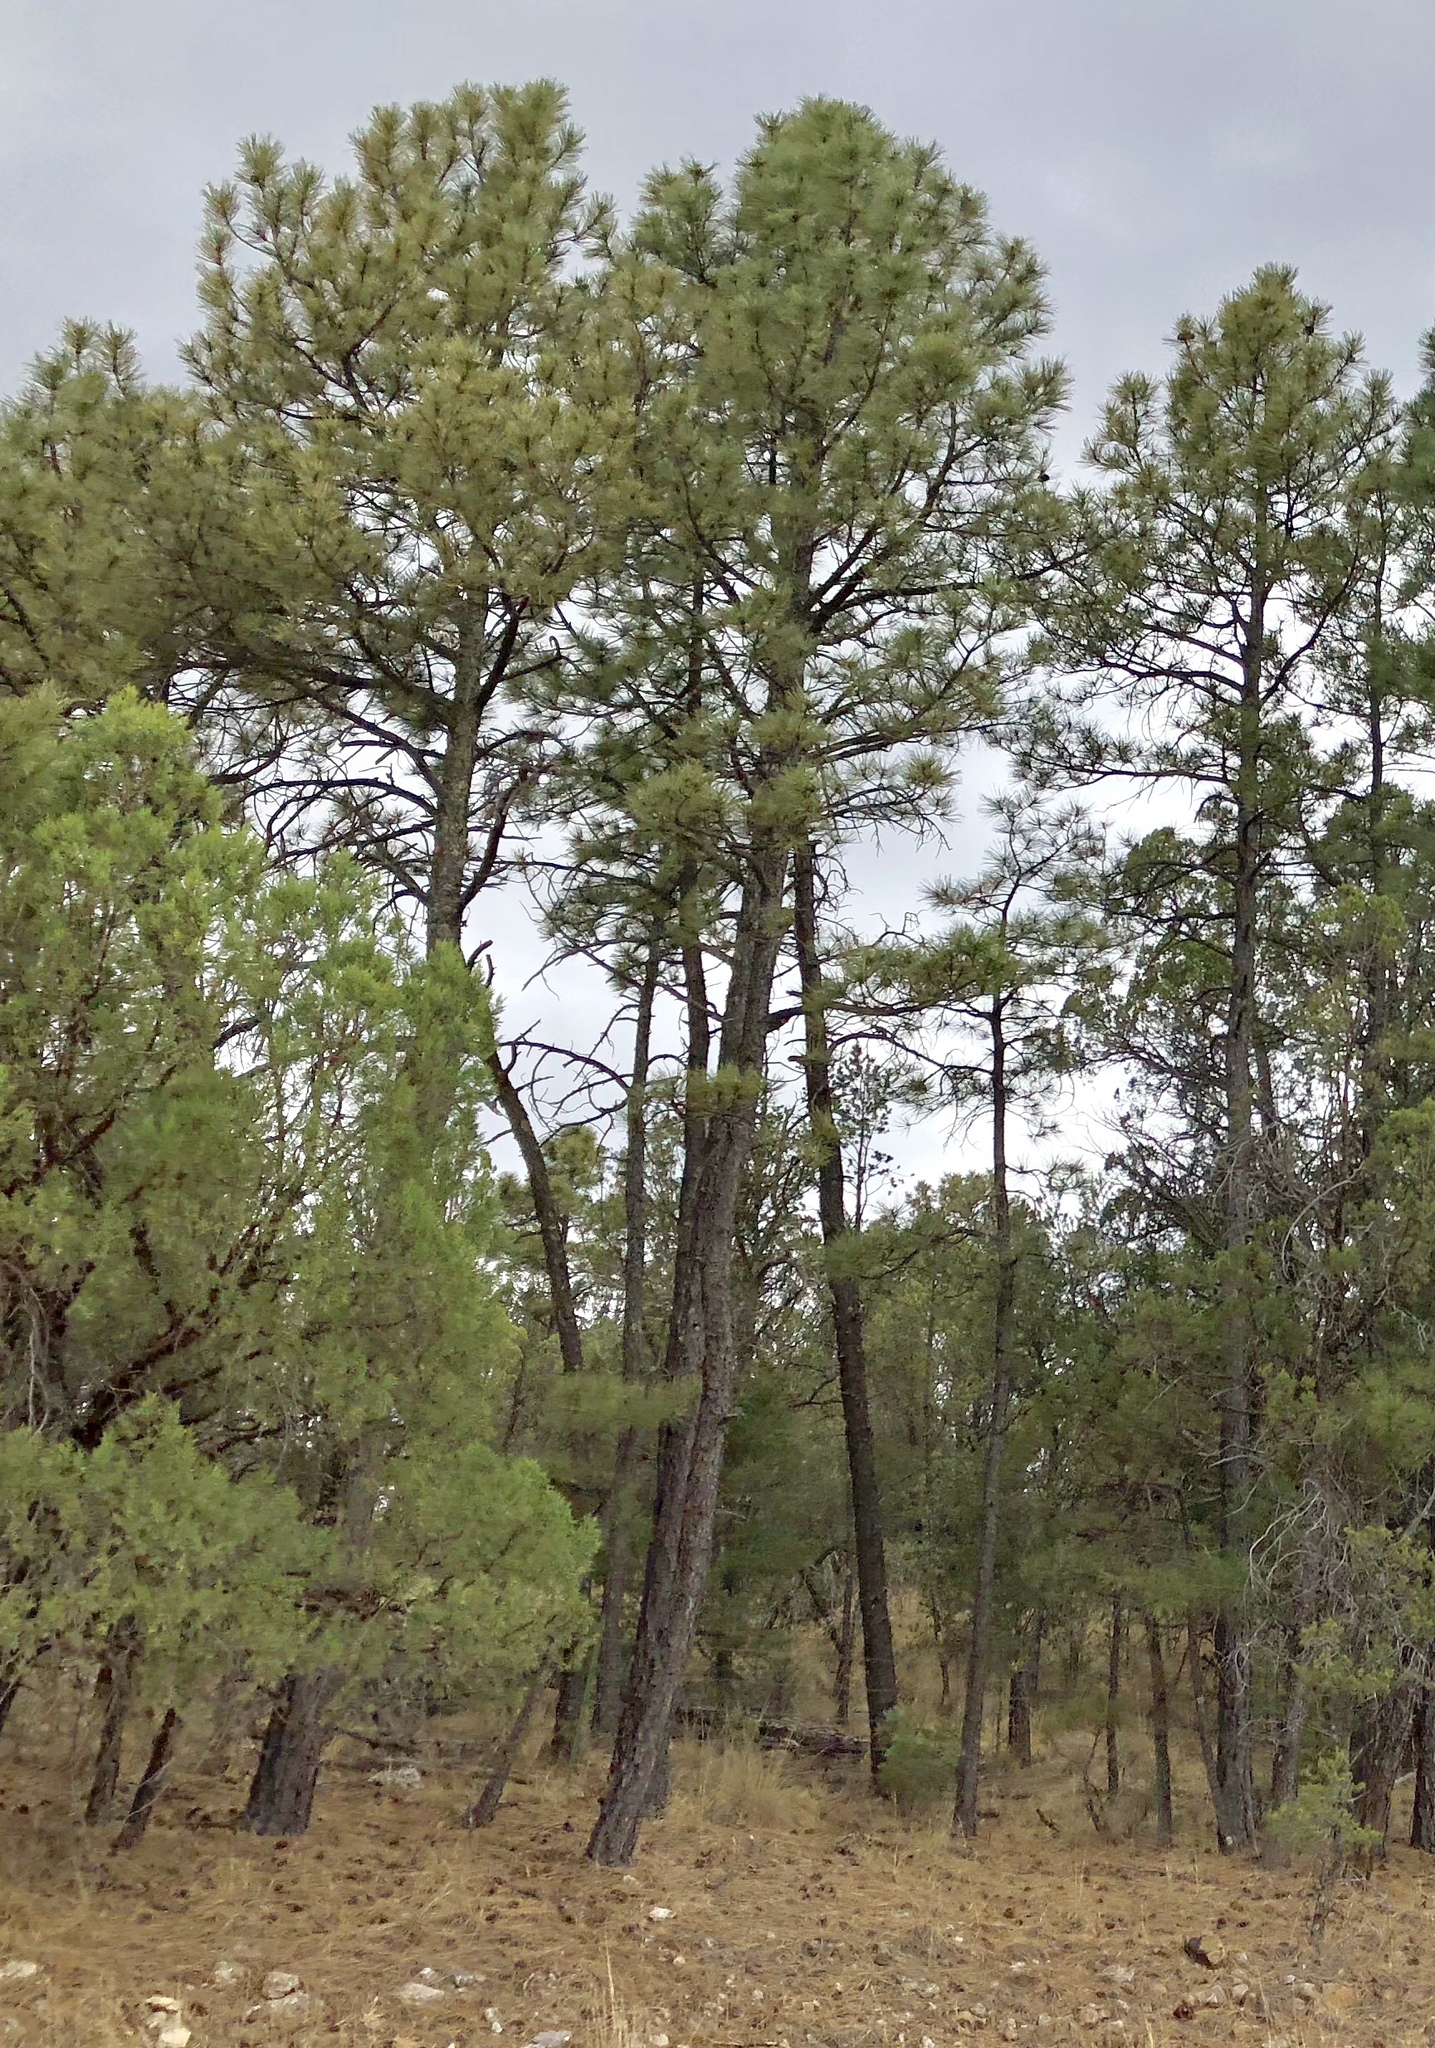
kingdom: Plantae
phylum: Tracheophyta
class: Pinopsida
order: Pinales
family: Pinaceae
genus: Pinus
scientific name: Pinus ponderosa
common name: Western yellow-pine
